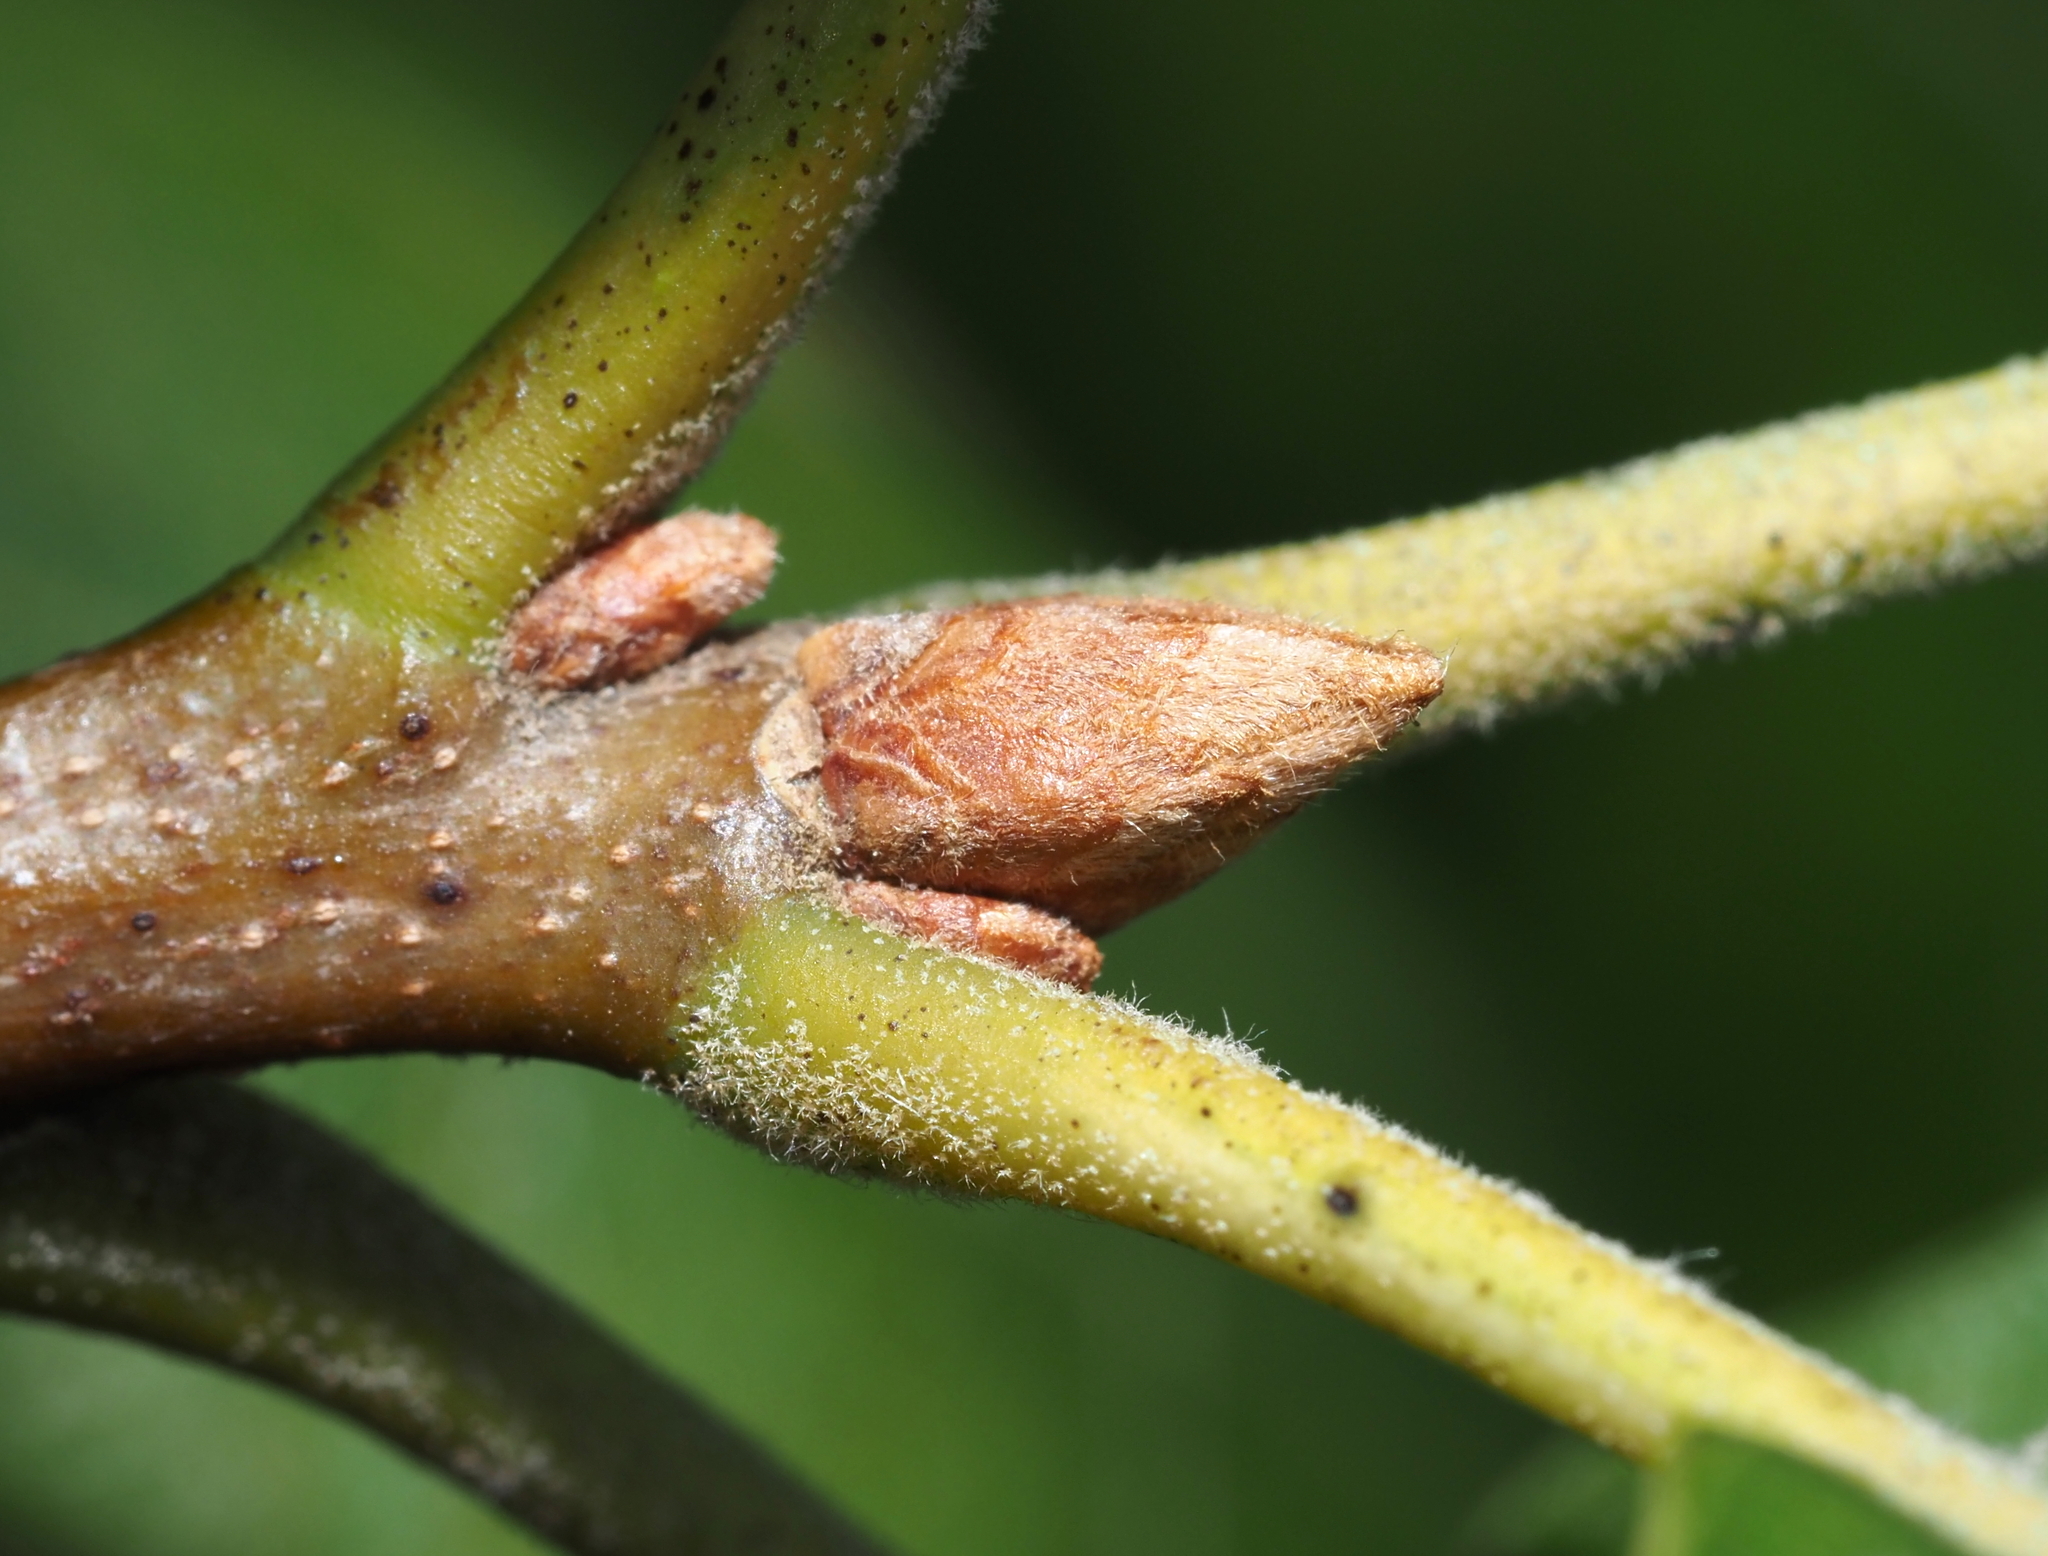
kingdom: Plantae
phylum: Tracheophyta
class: Magnoliopsida
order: Fagales
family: Fagaceae
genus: Quercus
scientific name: Quercus velutina
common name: Black oak
